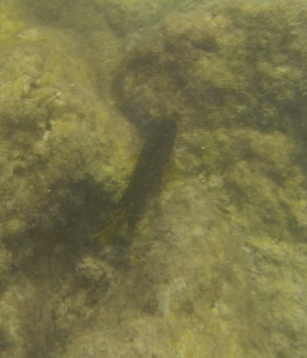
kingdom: Animalia
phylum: Chordata
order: Perciformes
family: Pomacentridae
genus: Stegastes
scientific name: Stegastes arcifrons
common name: Galapagos gregory
